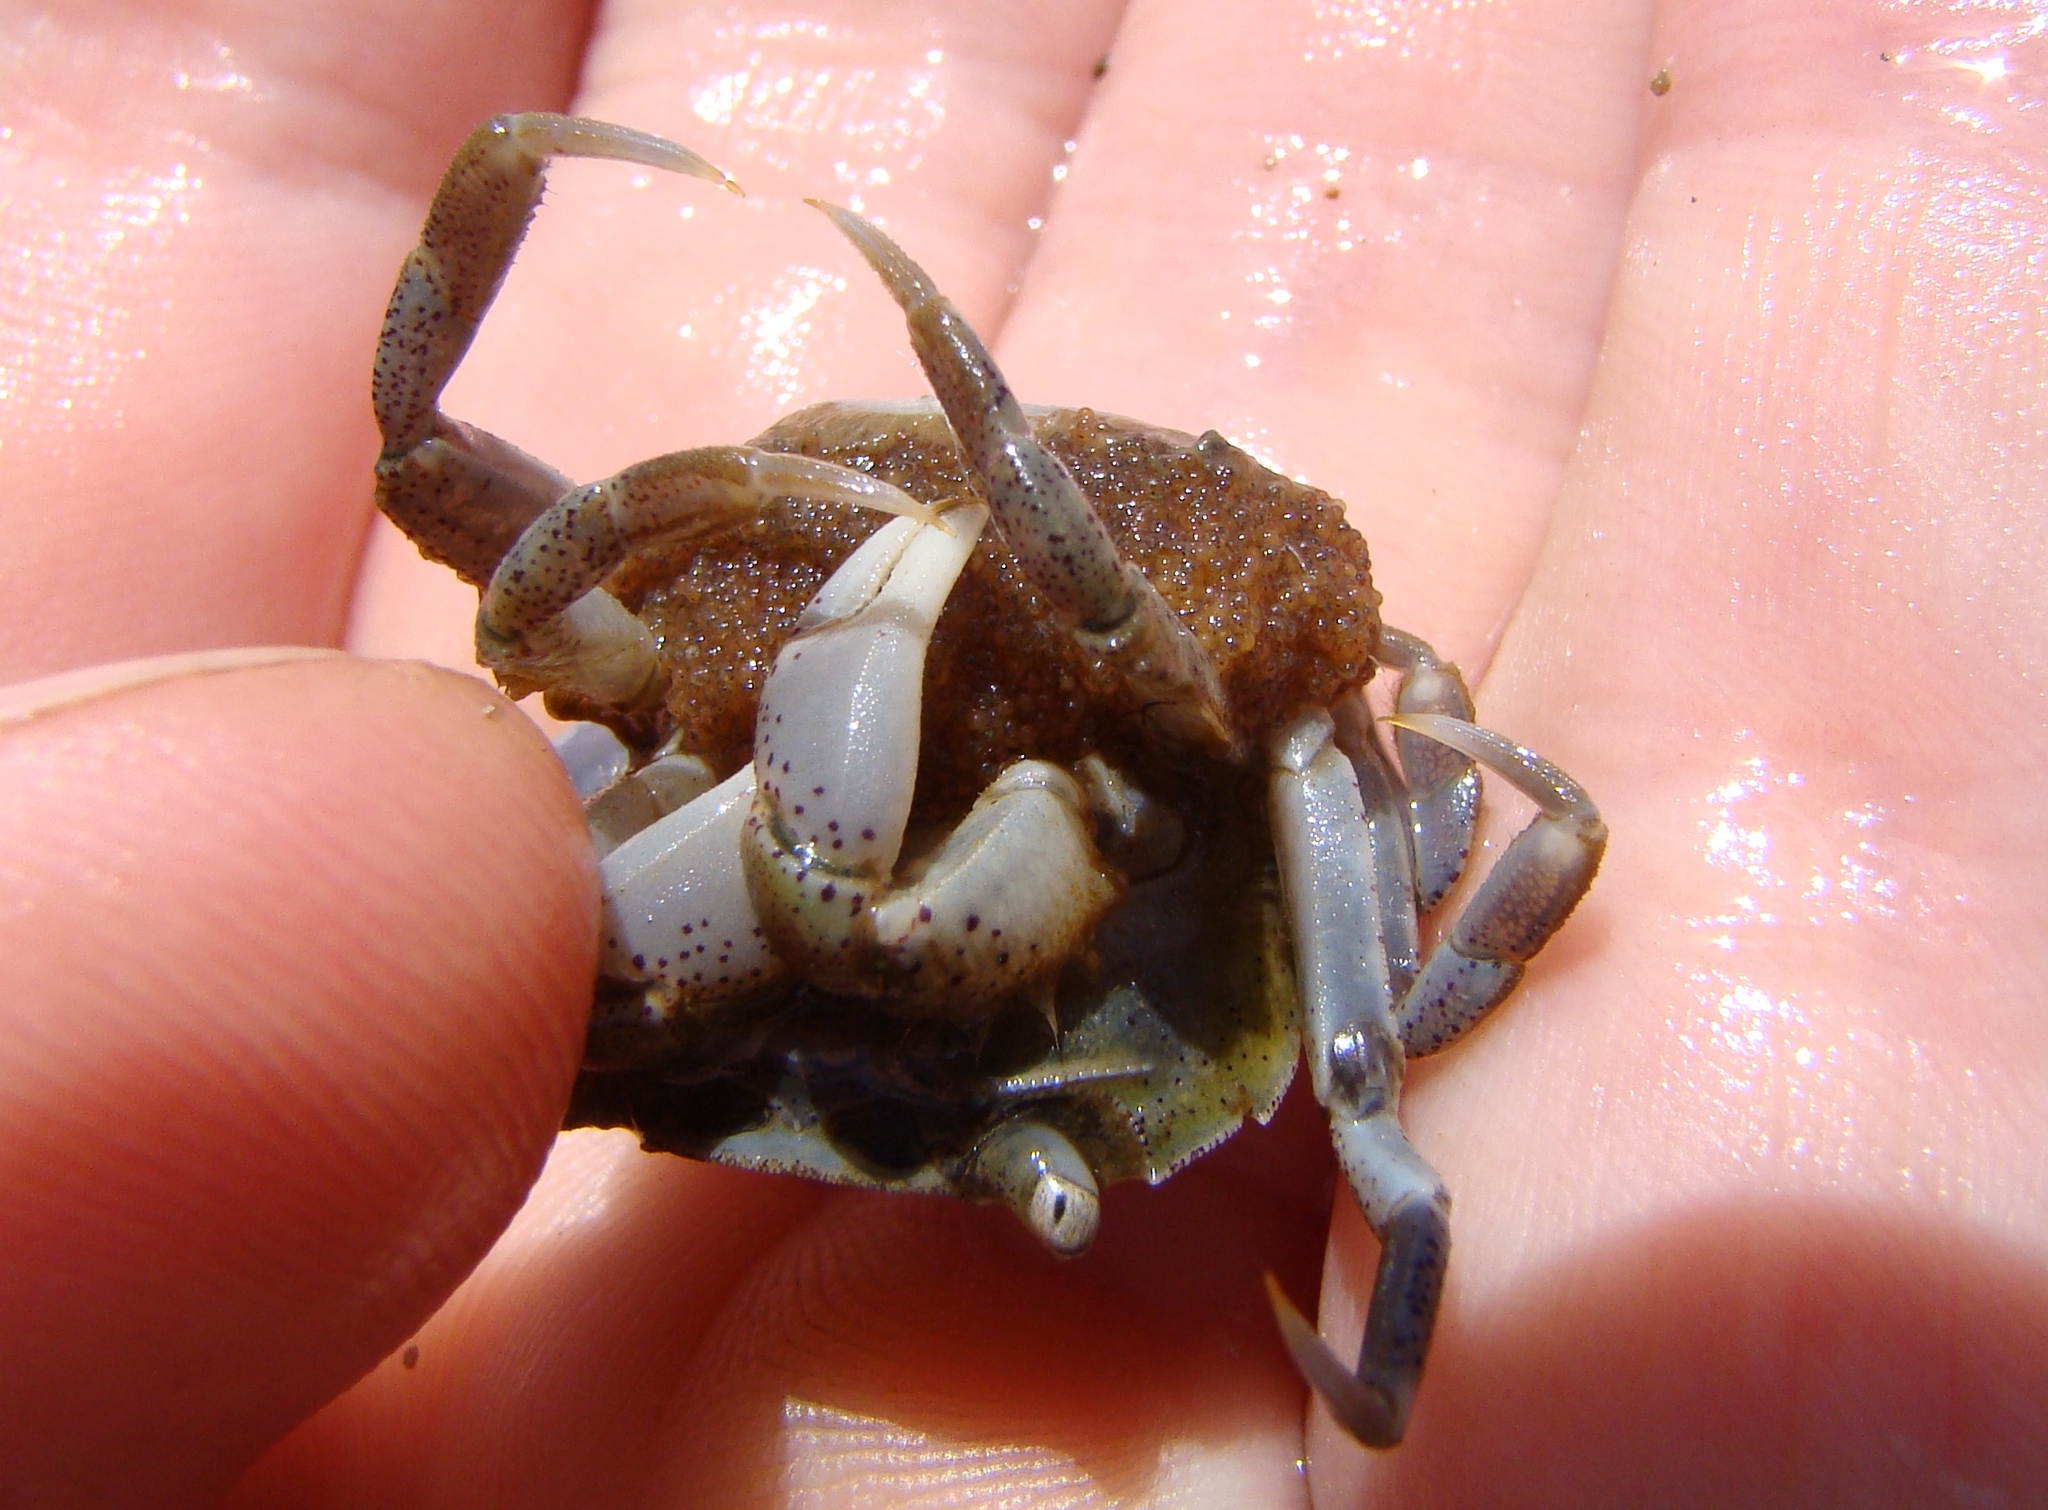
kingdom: Animalia
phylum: Arthropoda
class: Malacostraca
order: Decapoda
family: Varunidae
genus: Hemigrapsus
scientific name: Hemigrapsus crenulatus
